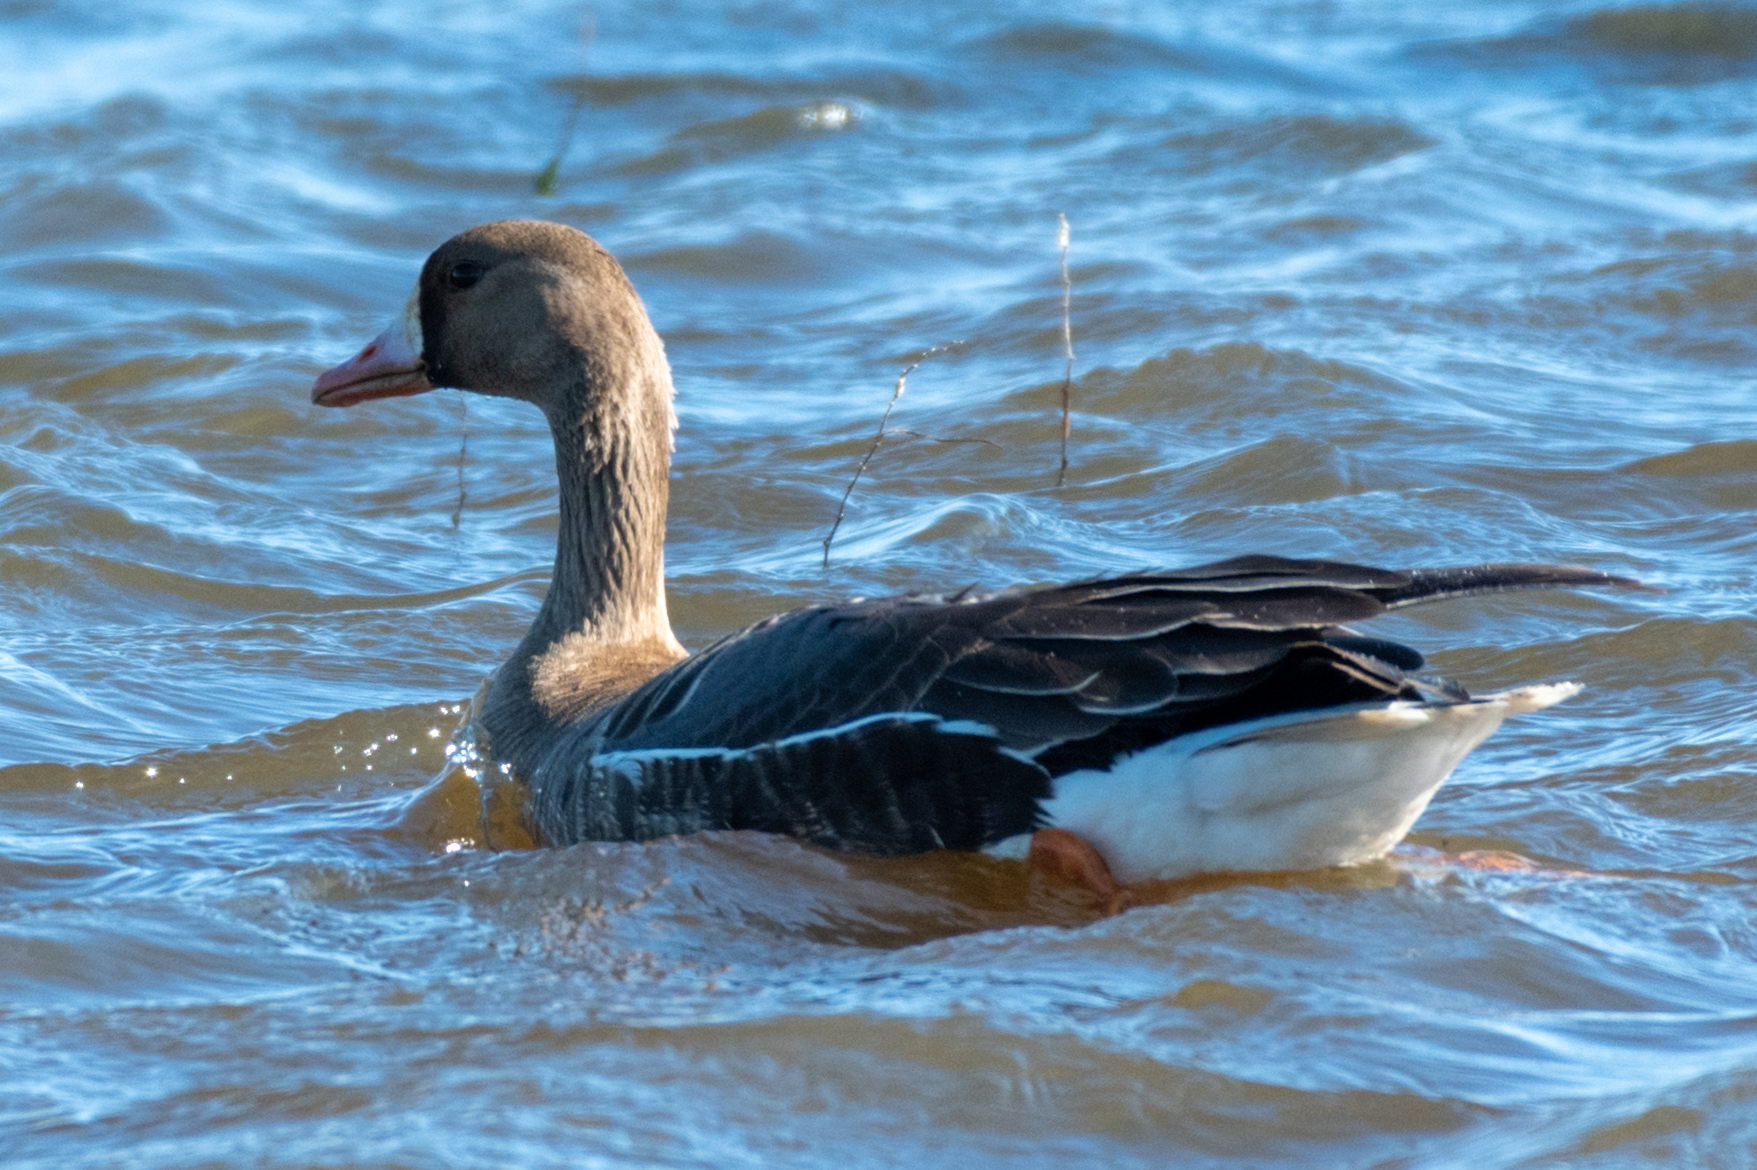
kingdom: Animalia
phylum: Chordata
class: Aves
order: Anseriformes
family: Anatidae
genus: Anser
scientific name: Anser albifrons
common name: Greater white-fronted goose
